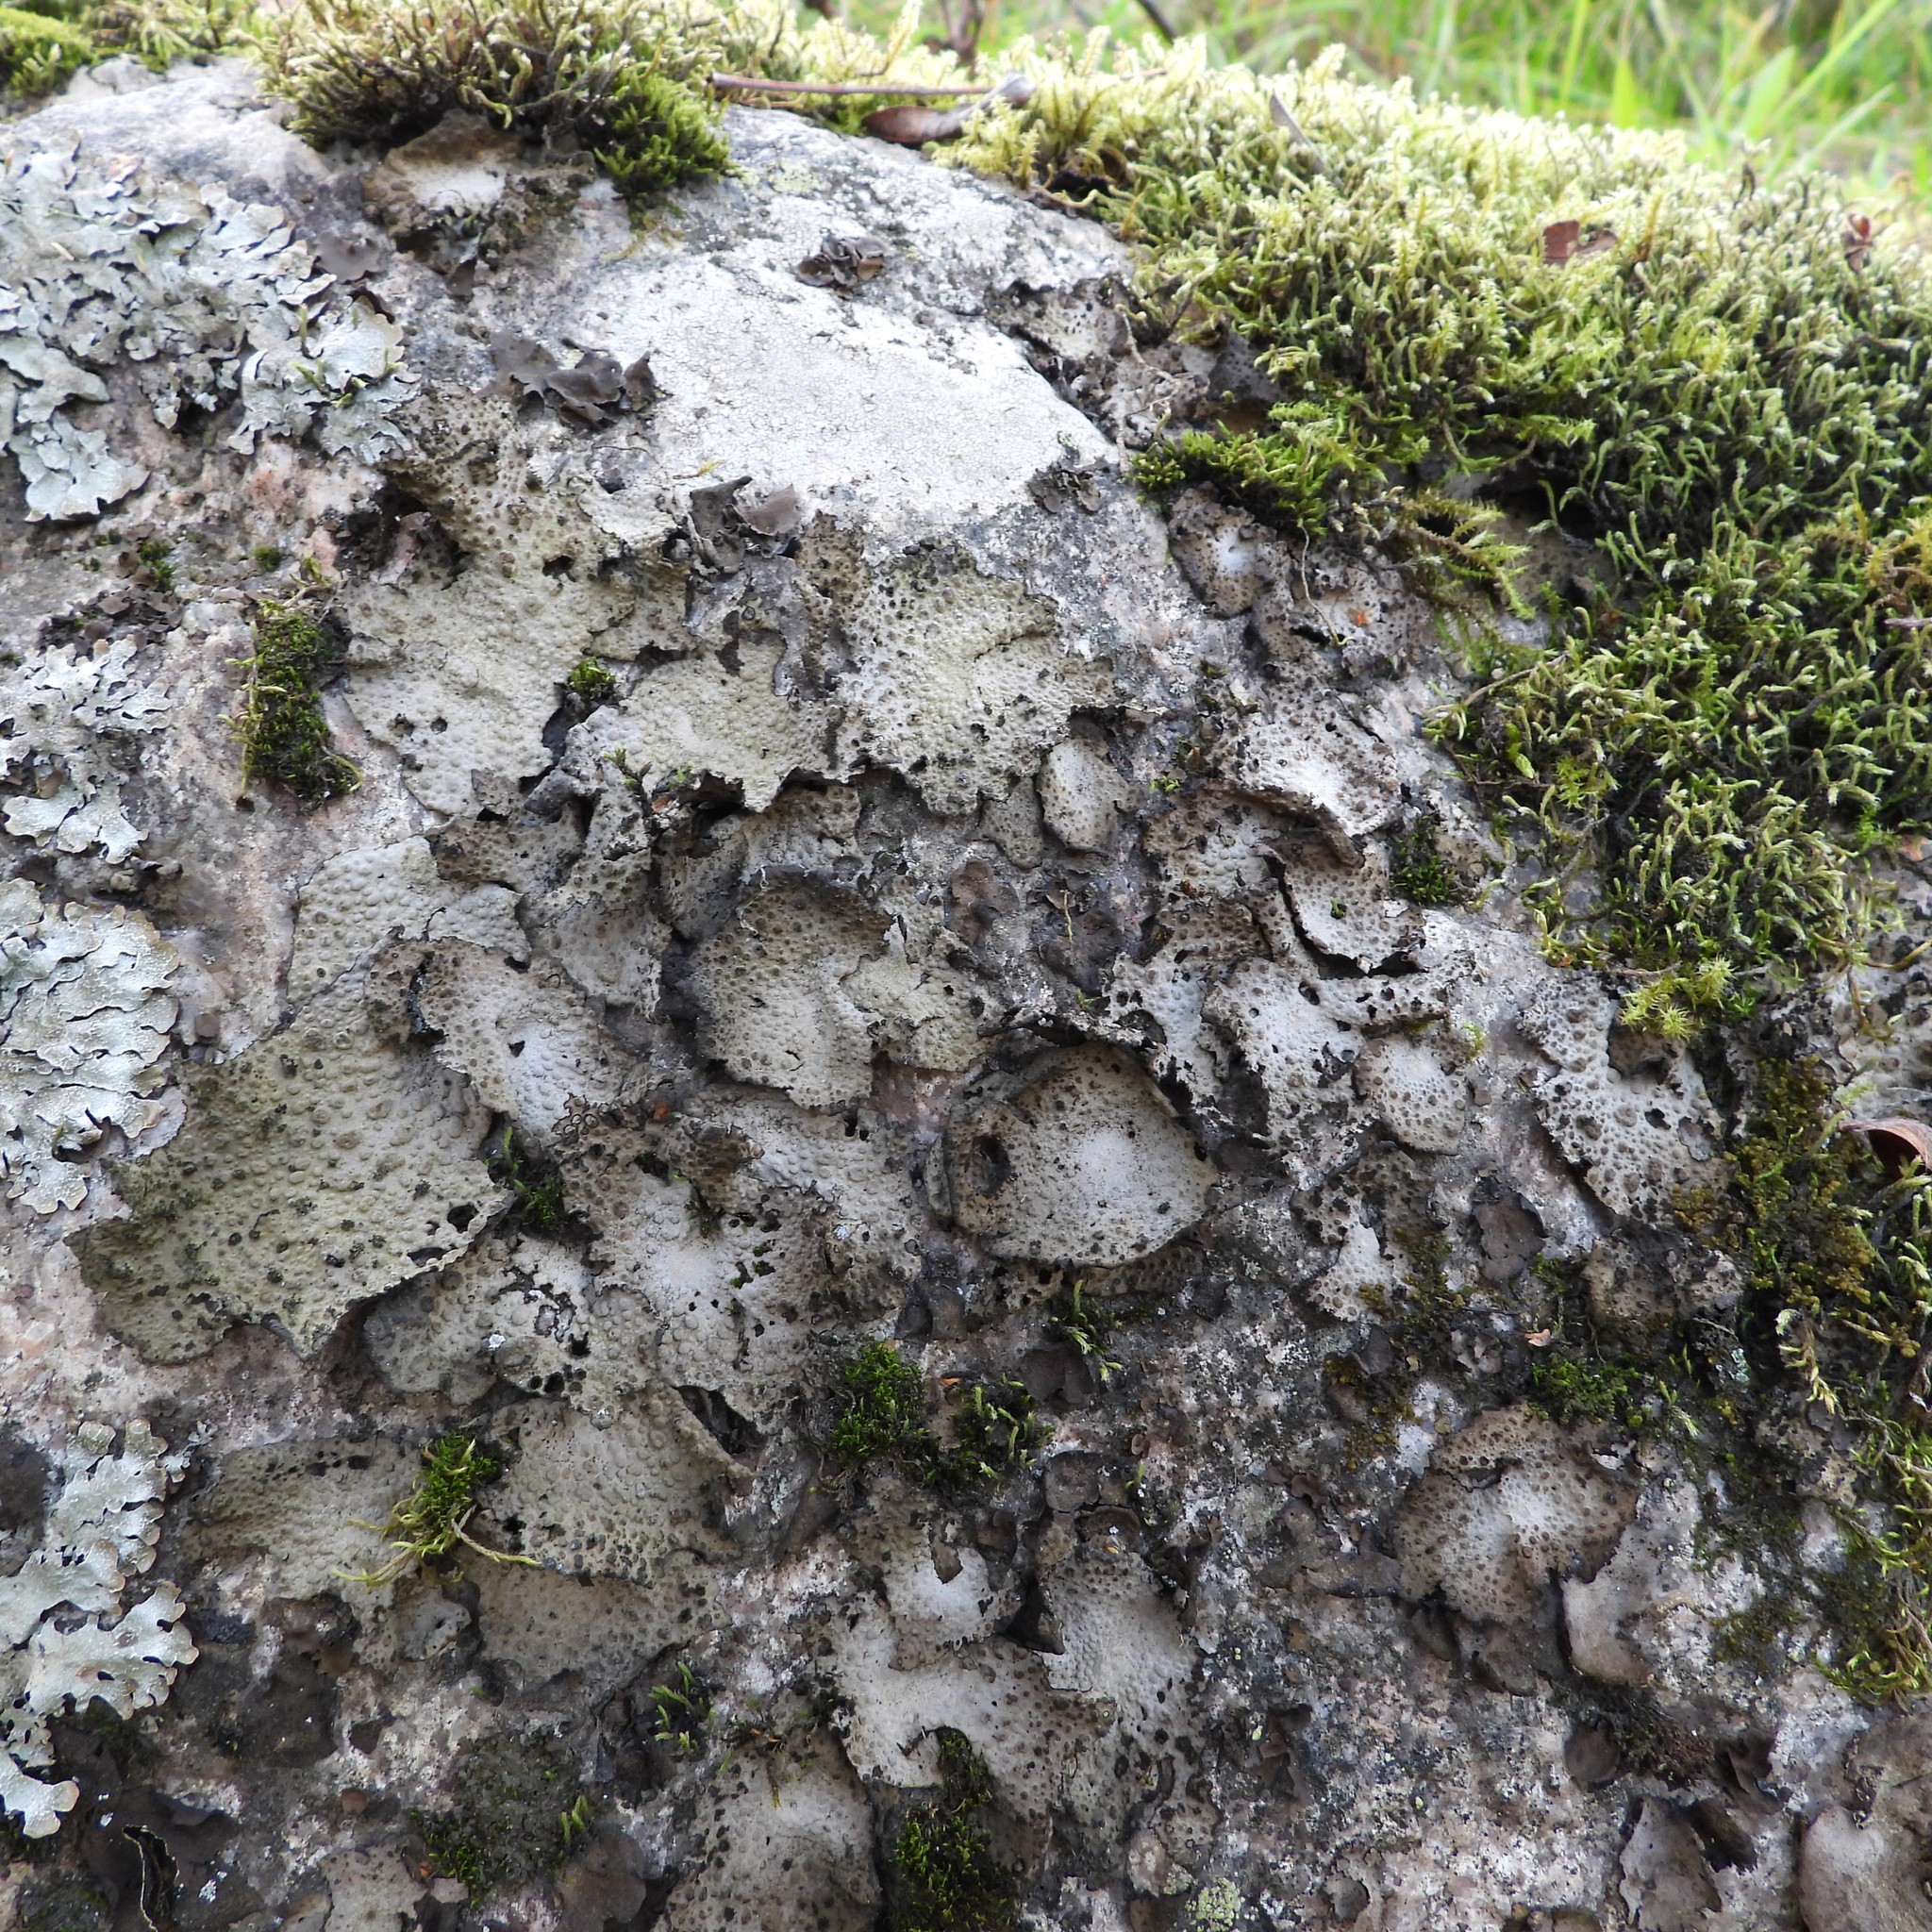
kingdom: Fungi
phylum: Ascomycota
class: Lecanoromycetes
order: Umbilicariales
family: Umbilicariaceae
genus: Lasallia
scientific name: Lasallia pustulata
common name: Blistered toadskin lichen
